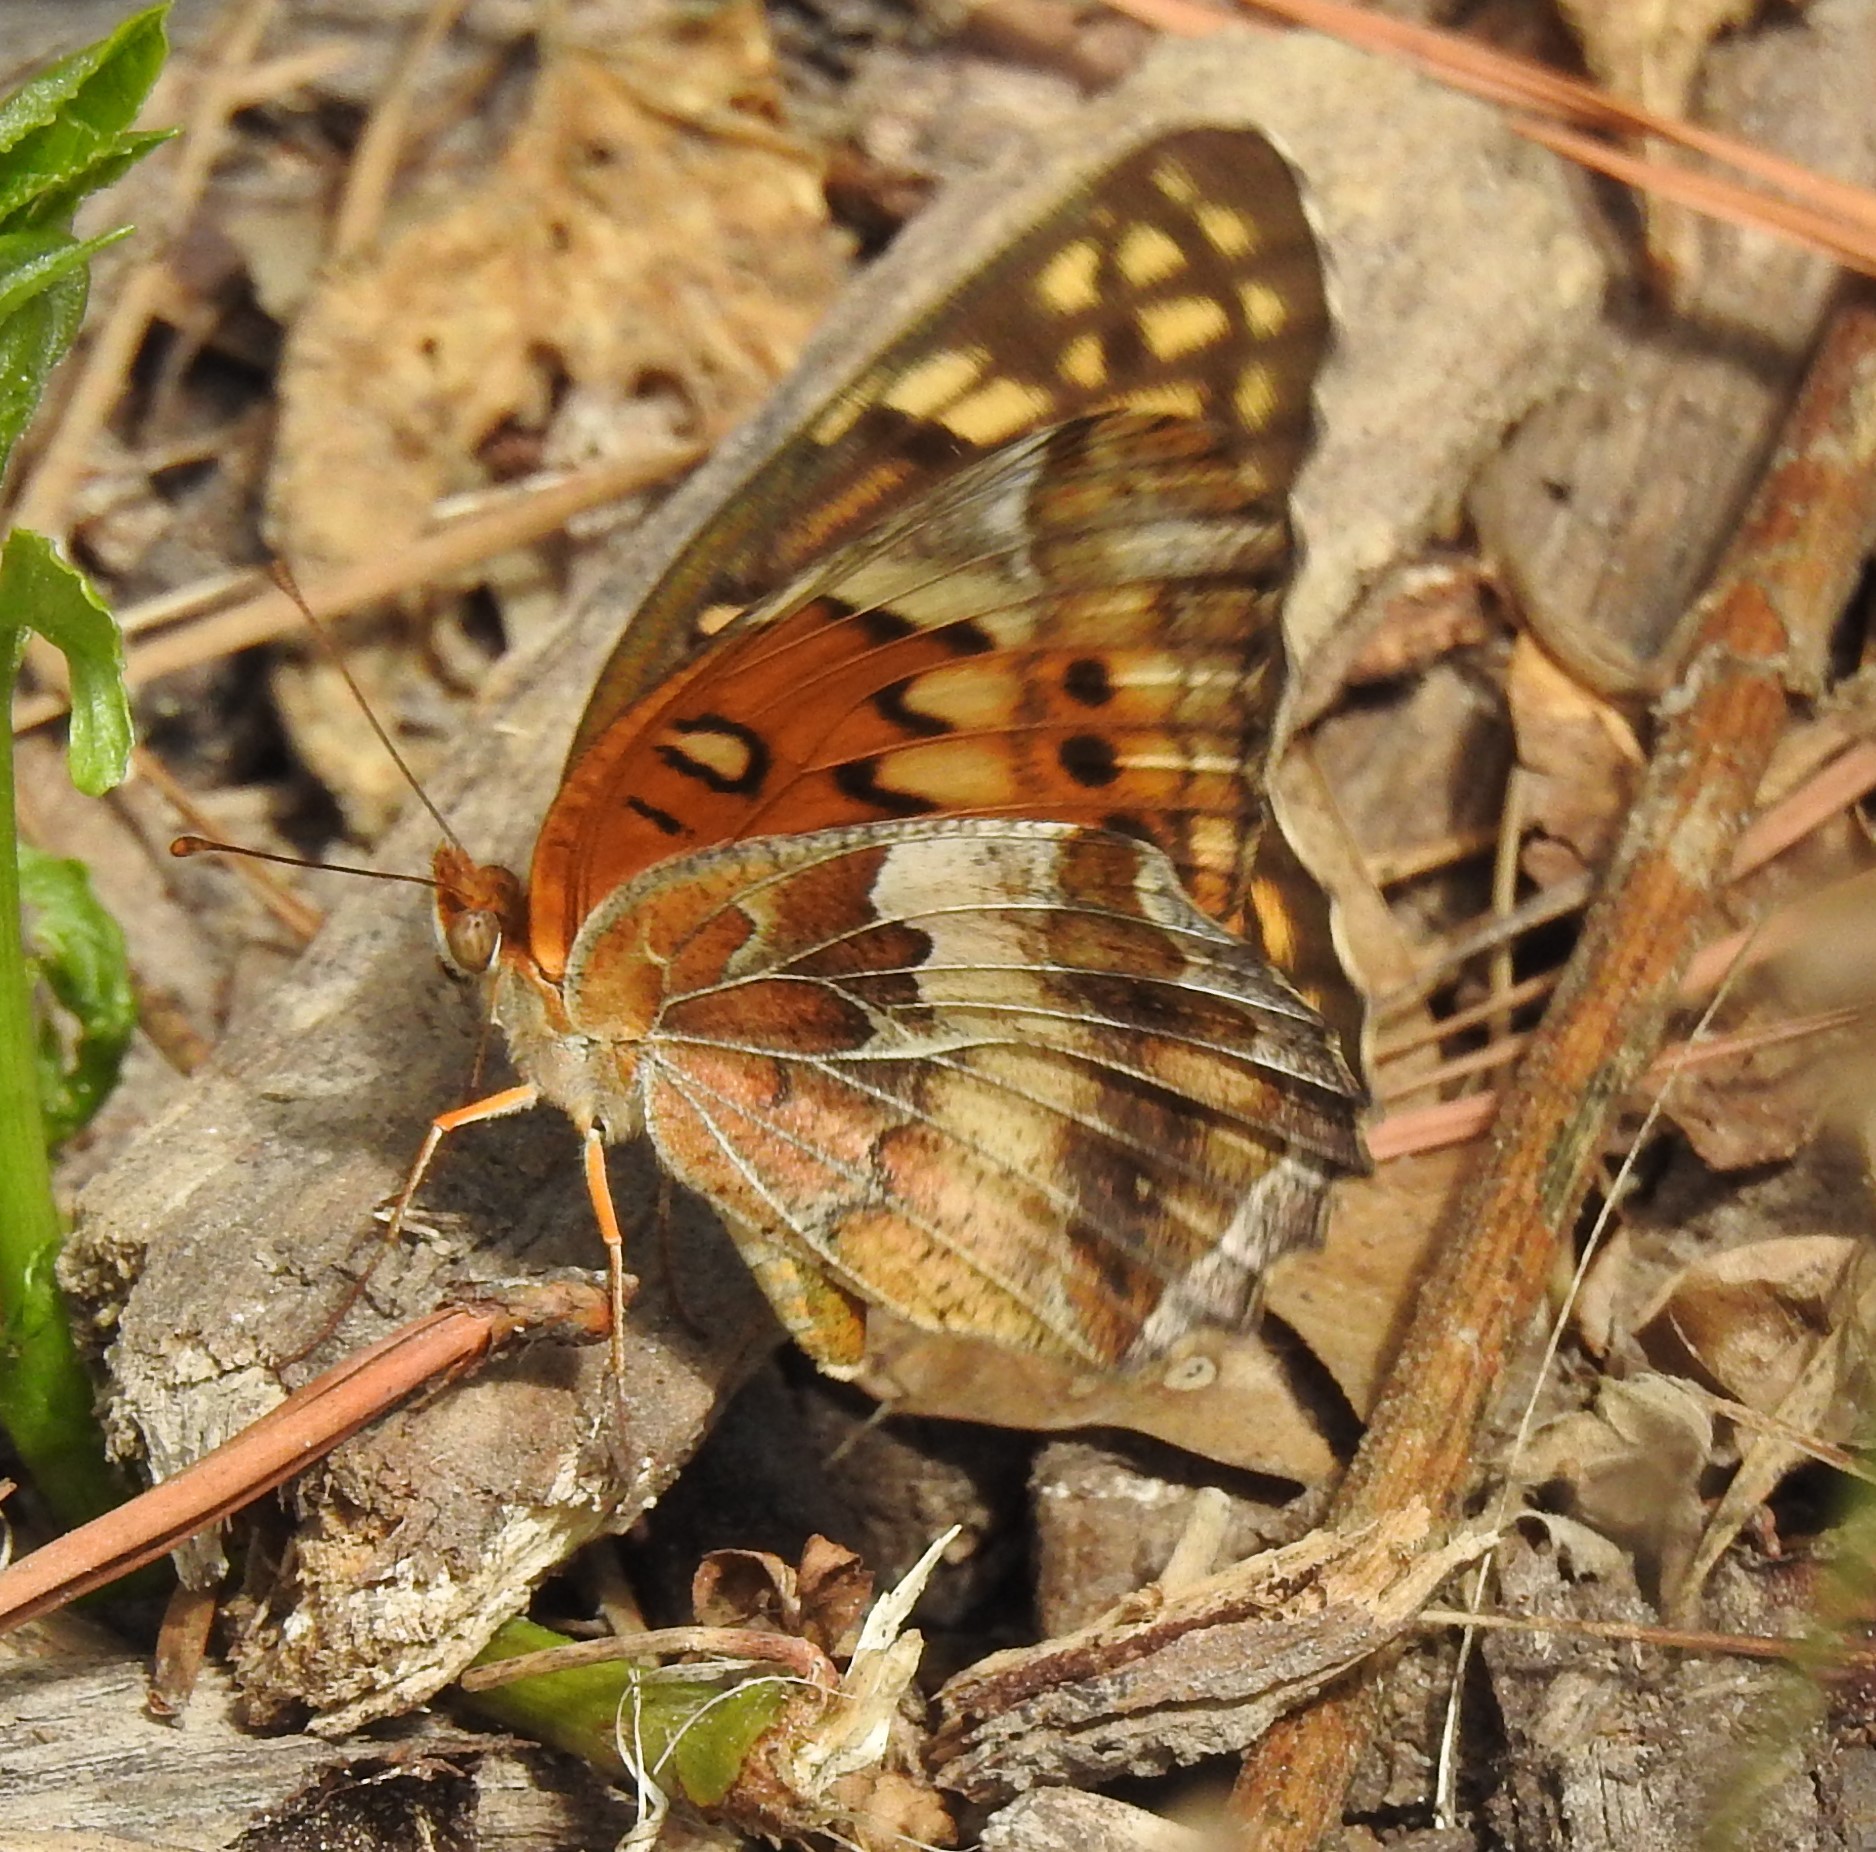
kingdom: Animalia
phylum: Arthropoda
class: Insecta
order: Lepidoptera
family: Nymphalidae
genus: Euptoieta
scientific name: Euptoieta claudia
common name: Variegated fritillary
